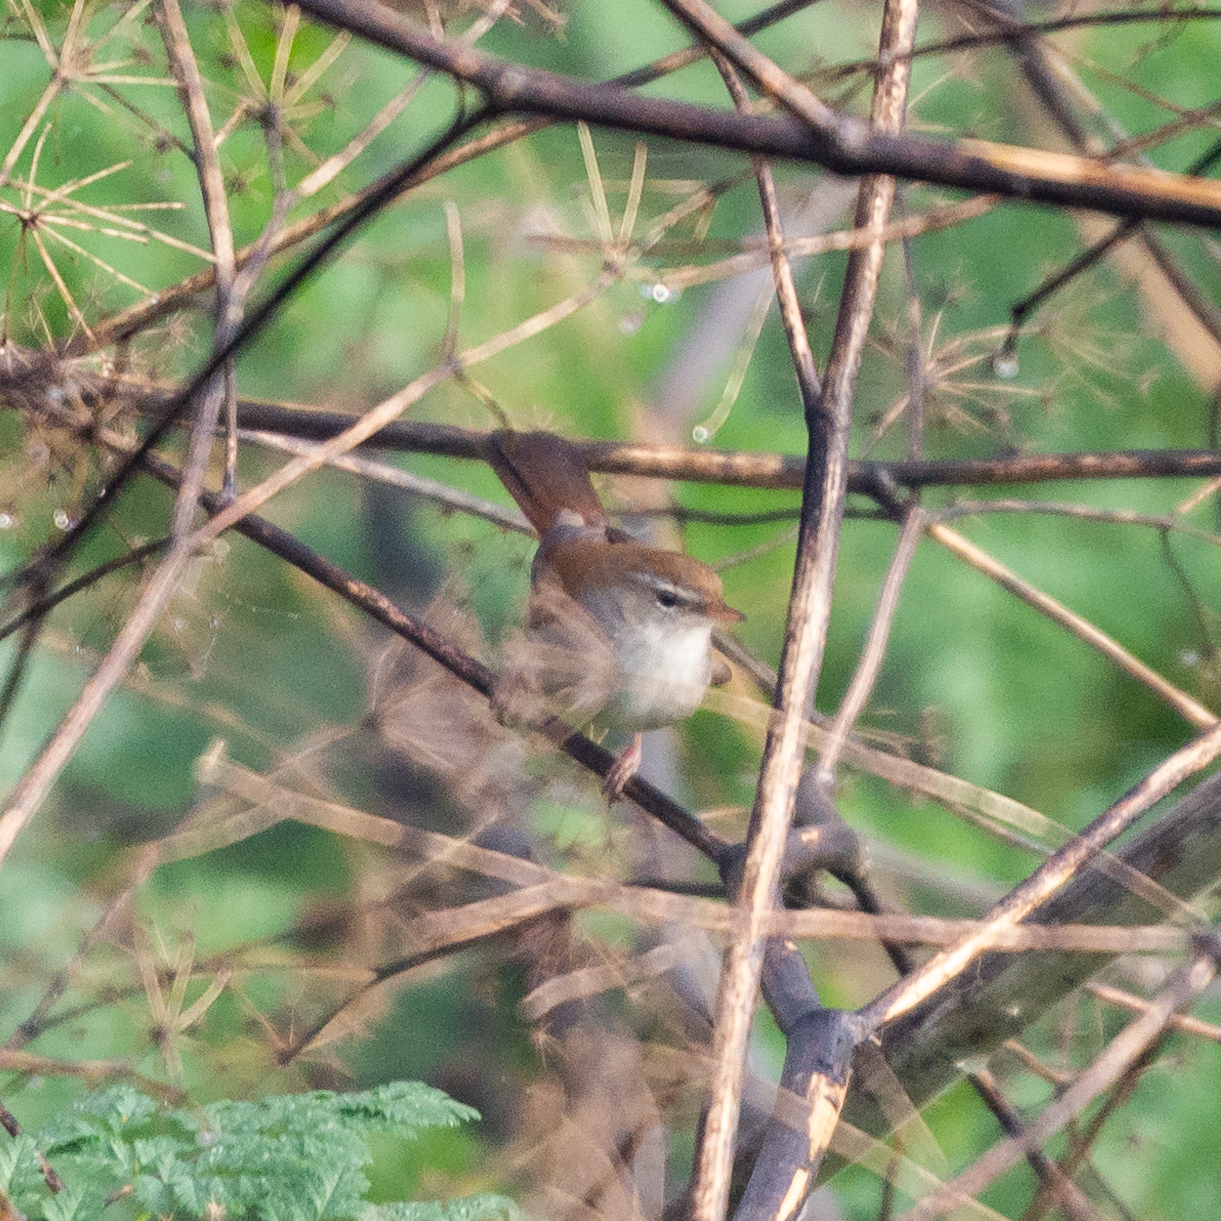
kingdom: Animalia
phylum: Chordata
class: Aves
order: Passeriformes
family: Cettiidae
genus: Cettia
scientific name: Cettia cetti
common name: Cetti's warbler
